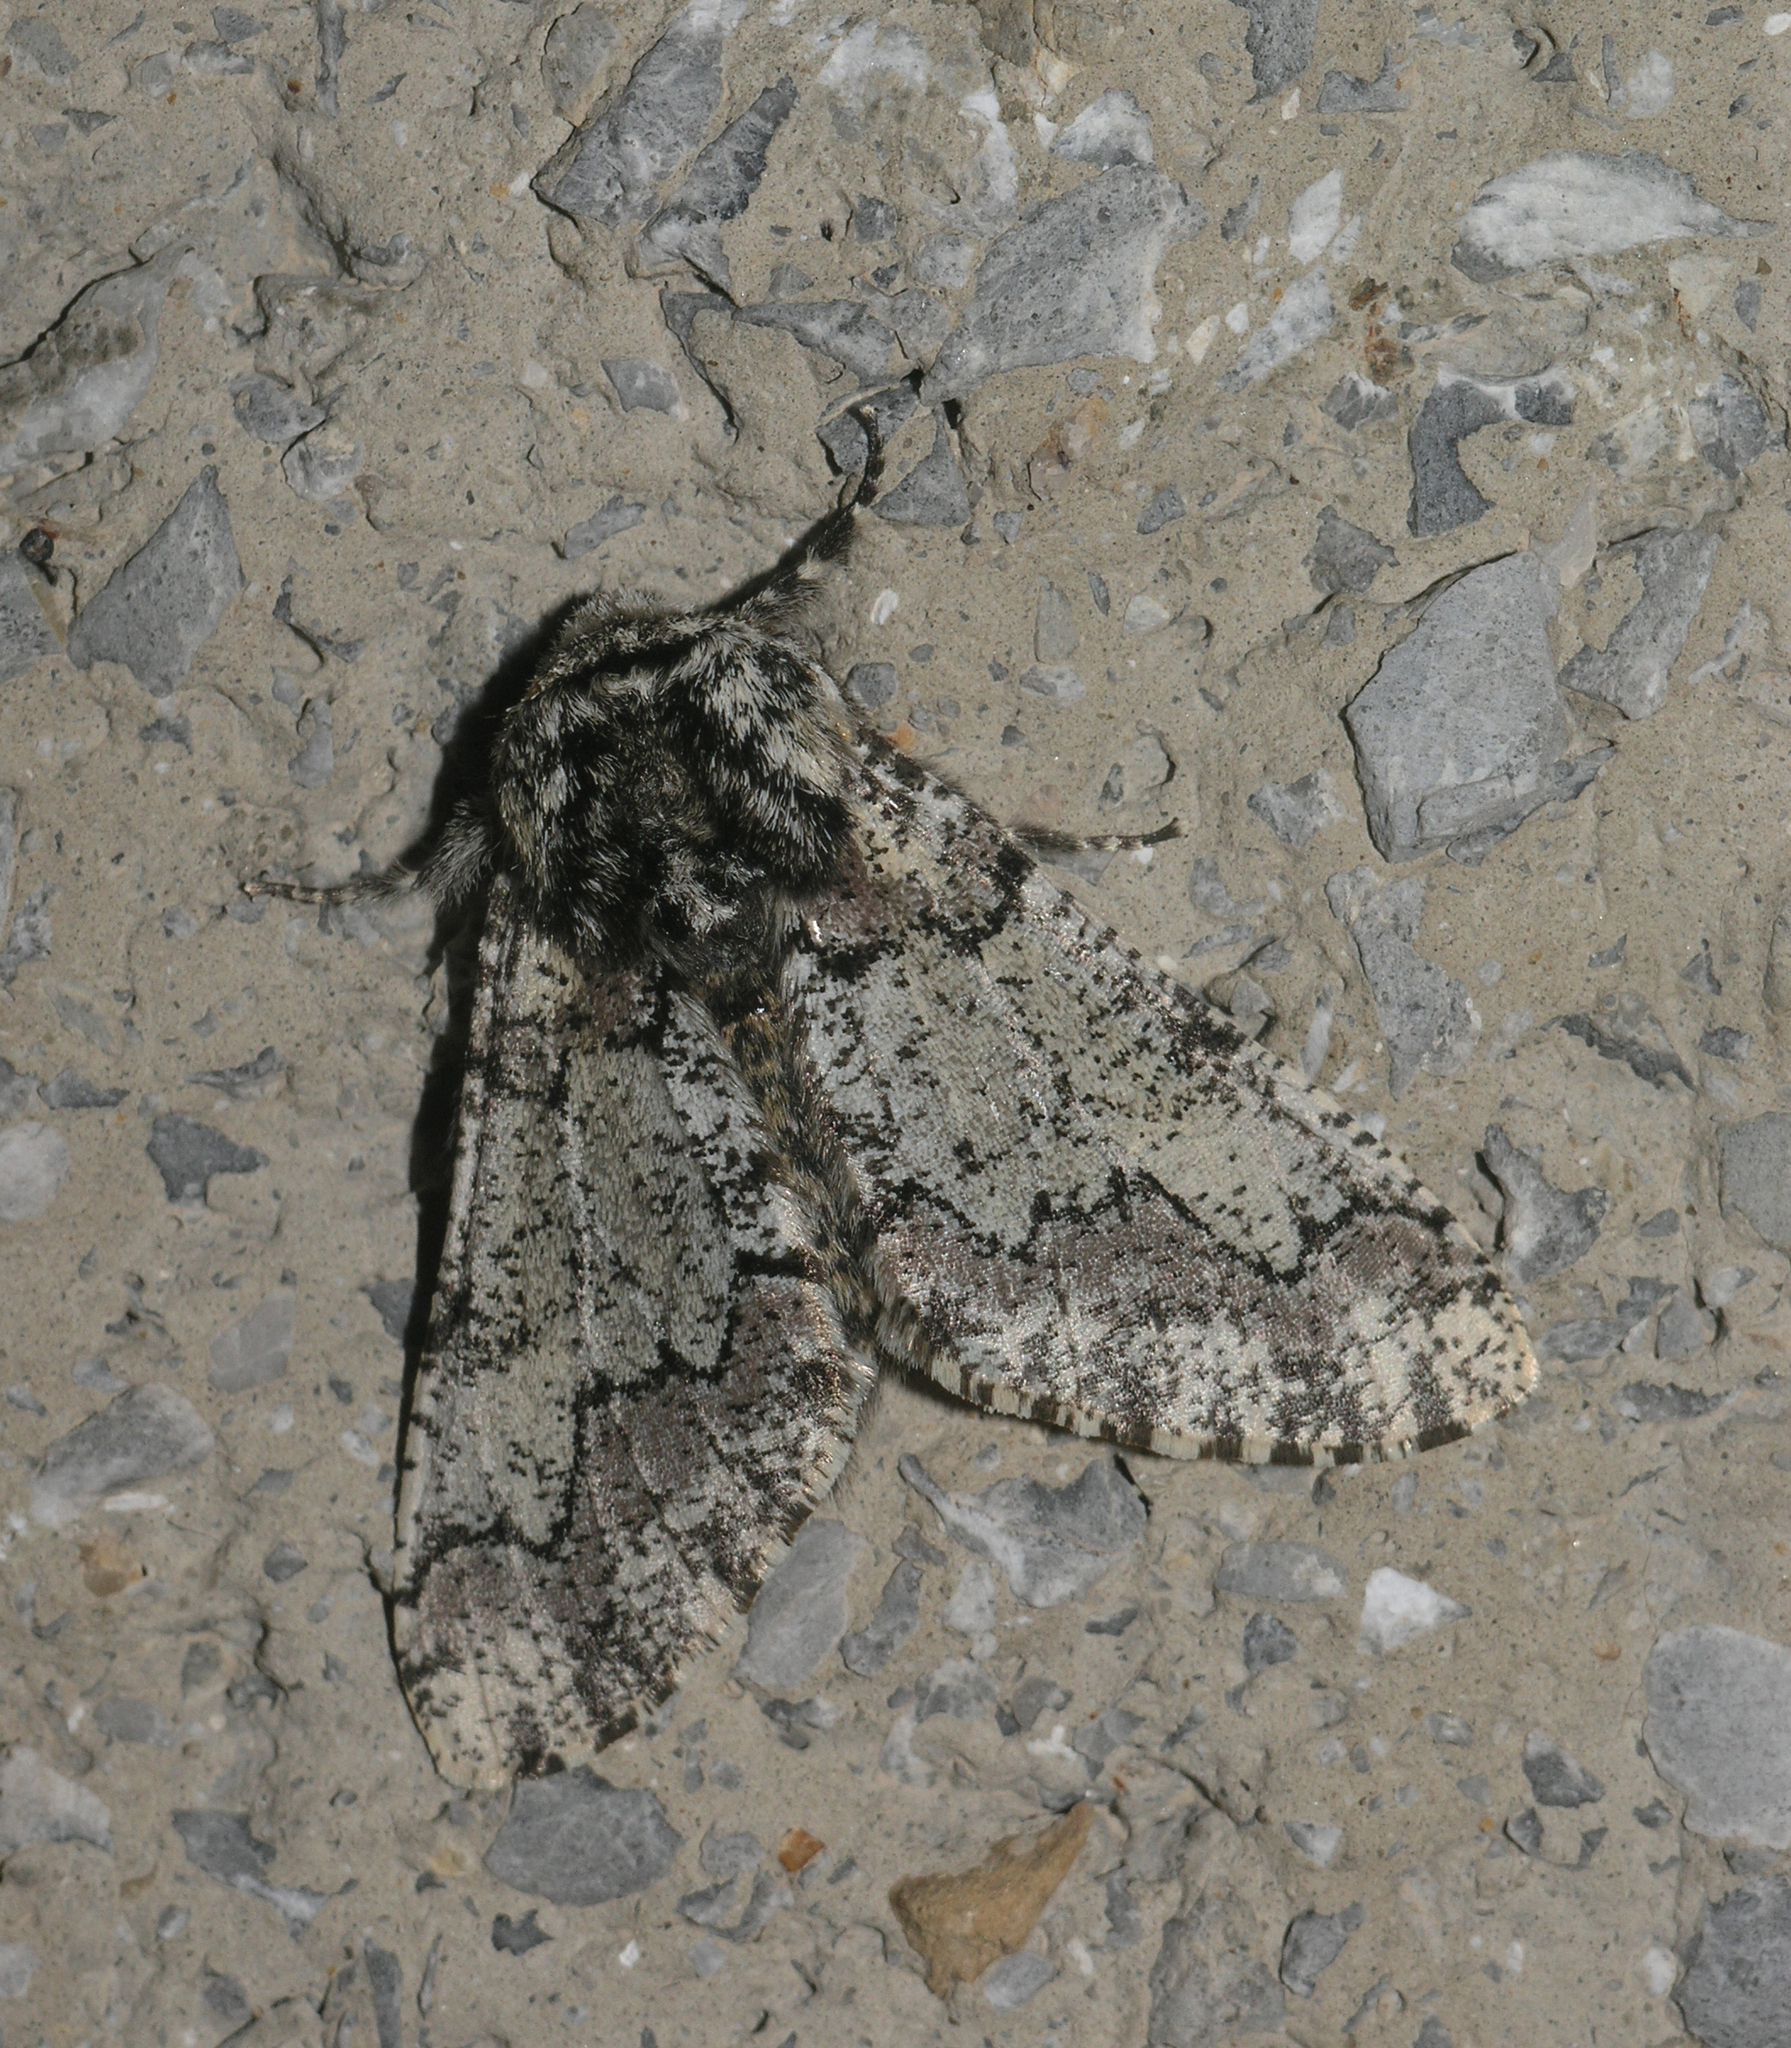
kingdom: Animalia
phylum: Arthropoda
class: Insecta
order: Lepidoptera
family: Geometridae
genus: Biston
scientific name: Biston strataria
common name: Oak beauty
